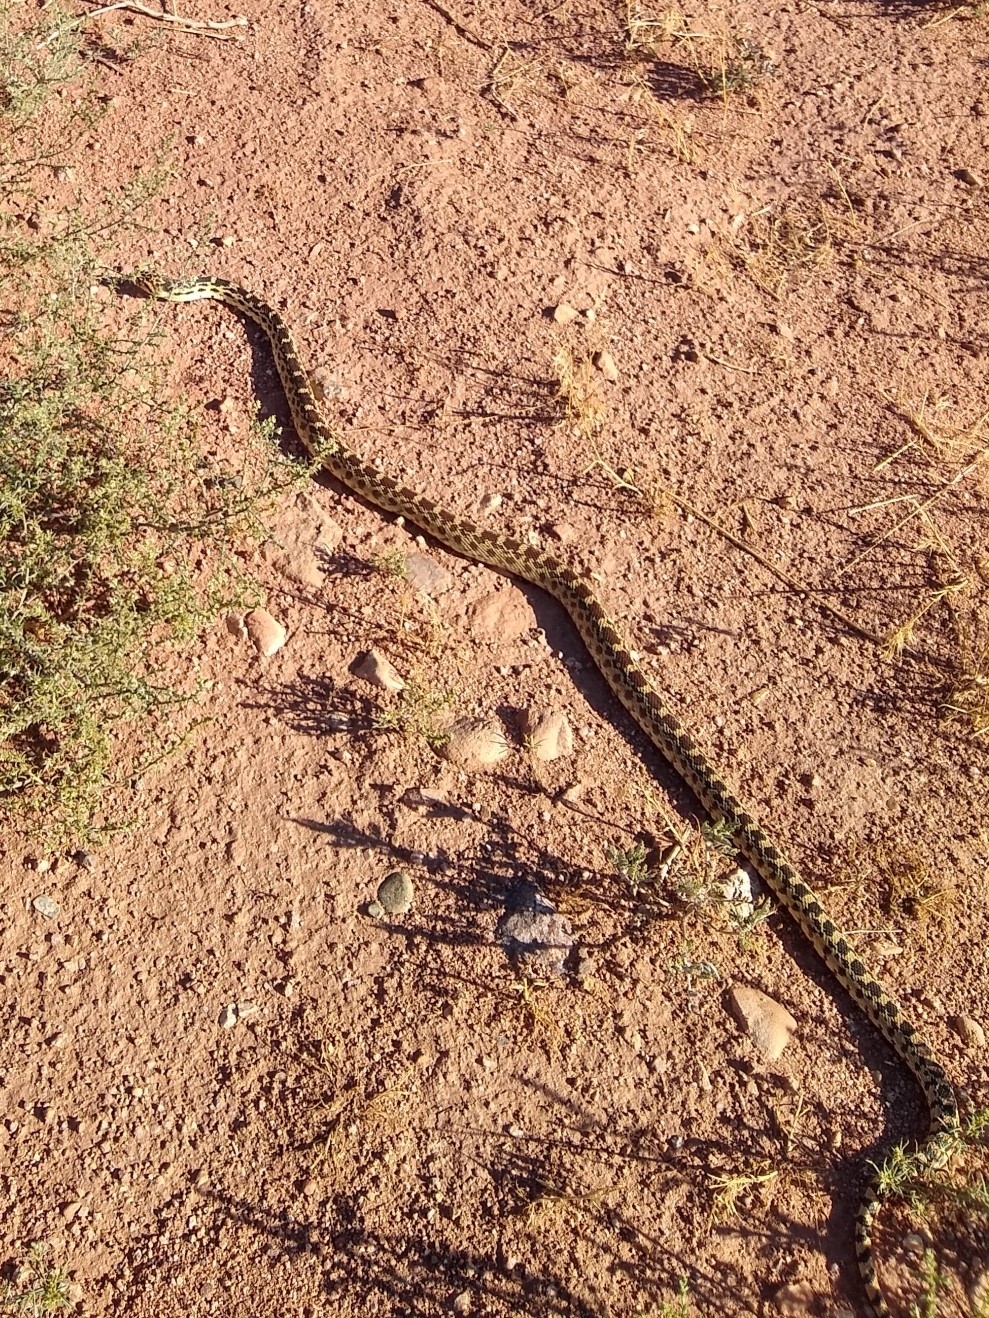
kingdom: Animalia
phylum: Chordata
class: Squamata
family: Colubridae
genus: Pituophis
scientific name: Pituophis catenifer
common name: Gopher snake
